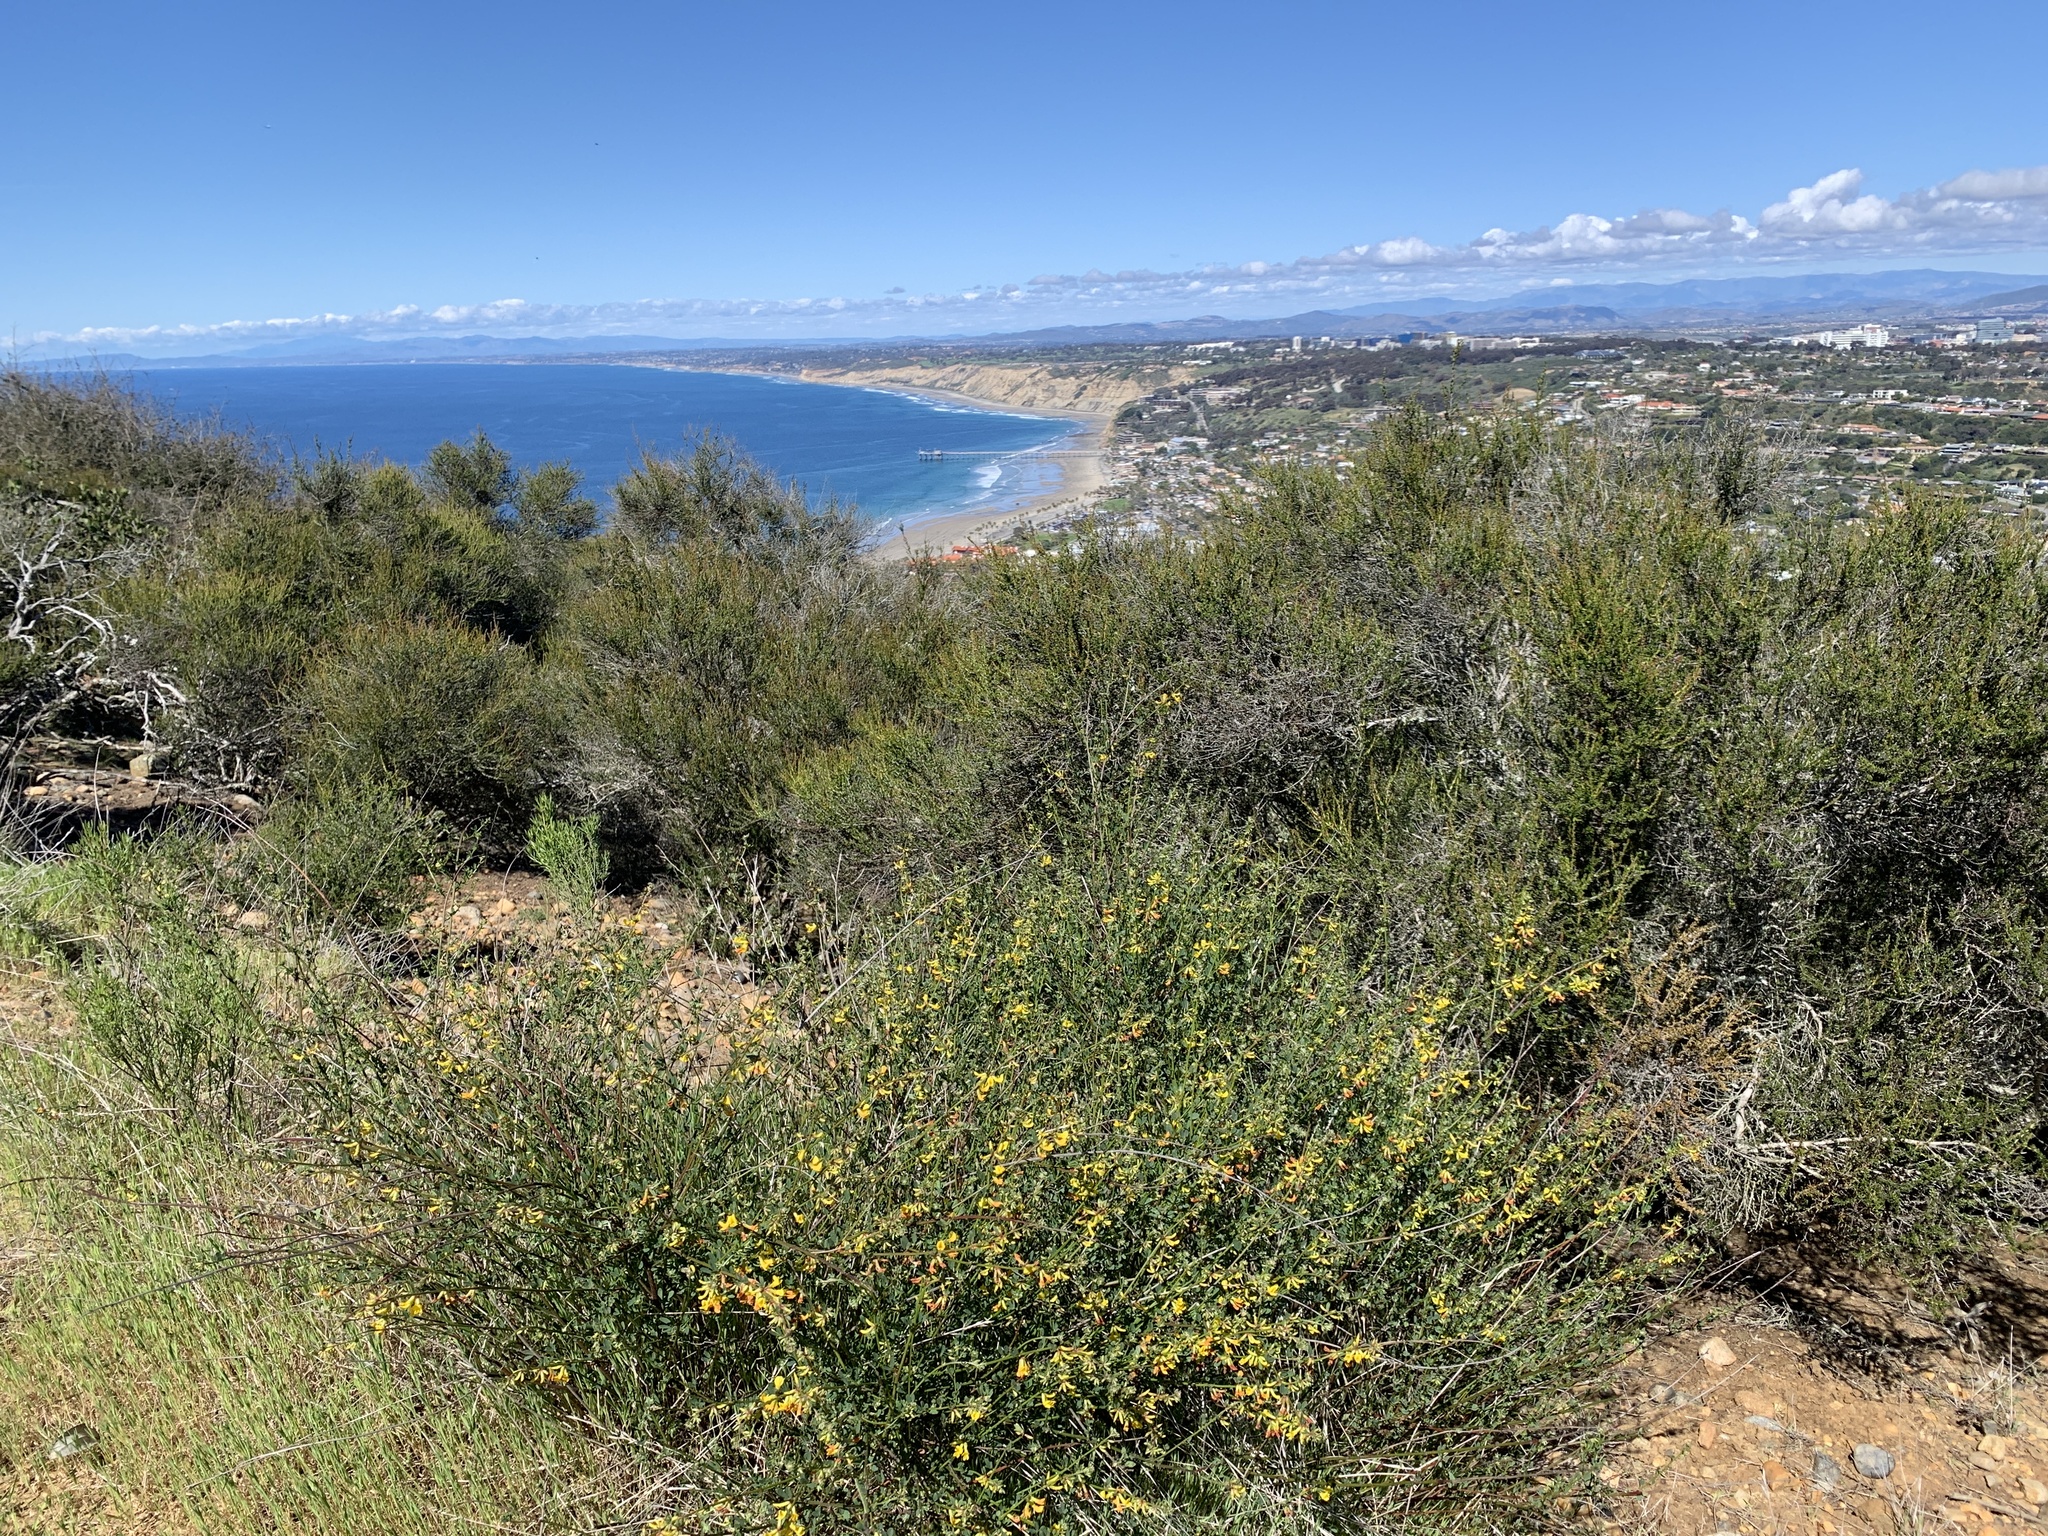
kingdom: Plantae
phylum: Tracheophyta
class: Magnoliopsida
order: Fabales
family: Fabaceae
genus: Acmispon
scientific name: Acmispon glaber
